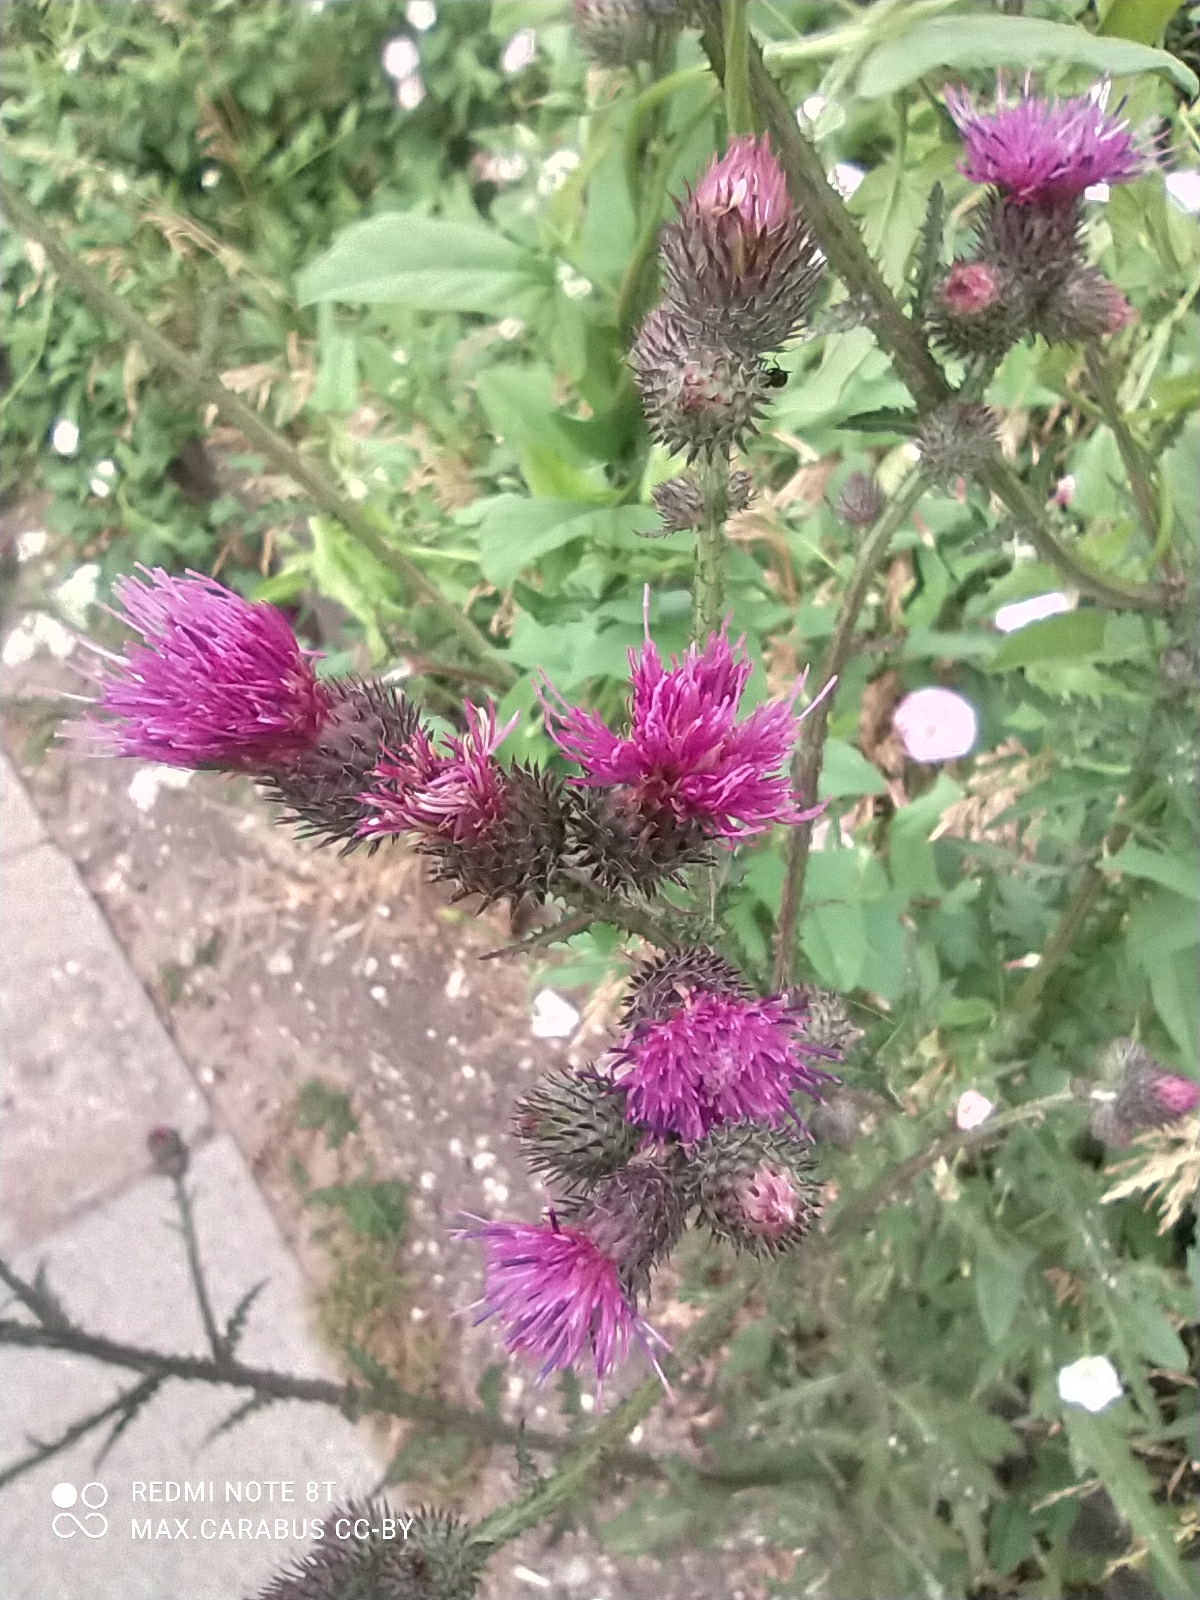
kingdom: Plantae
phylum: Tracheophyta
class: Magnoliopsida
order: Asterales
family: Asteraceae
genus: Carduus
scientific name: Carduus crispus
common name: Welted thistle
